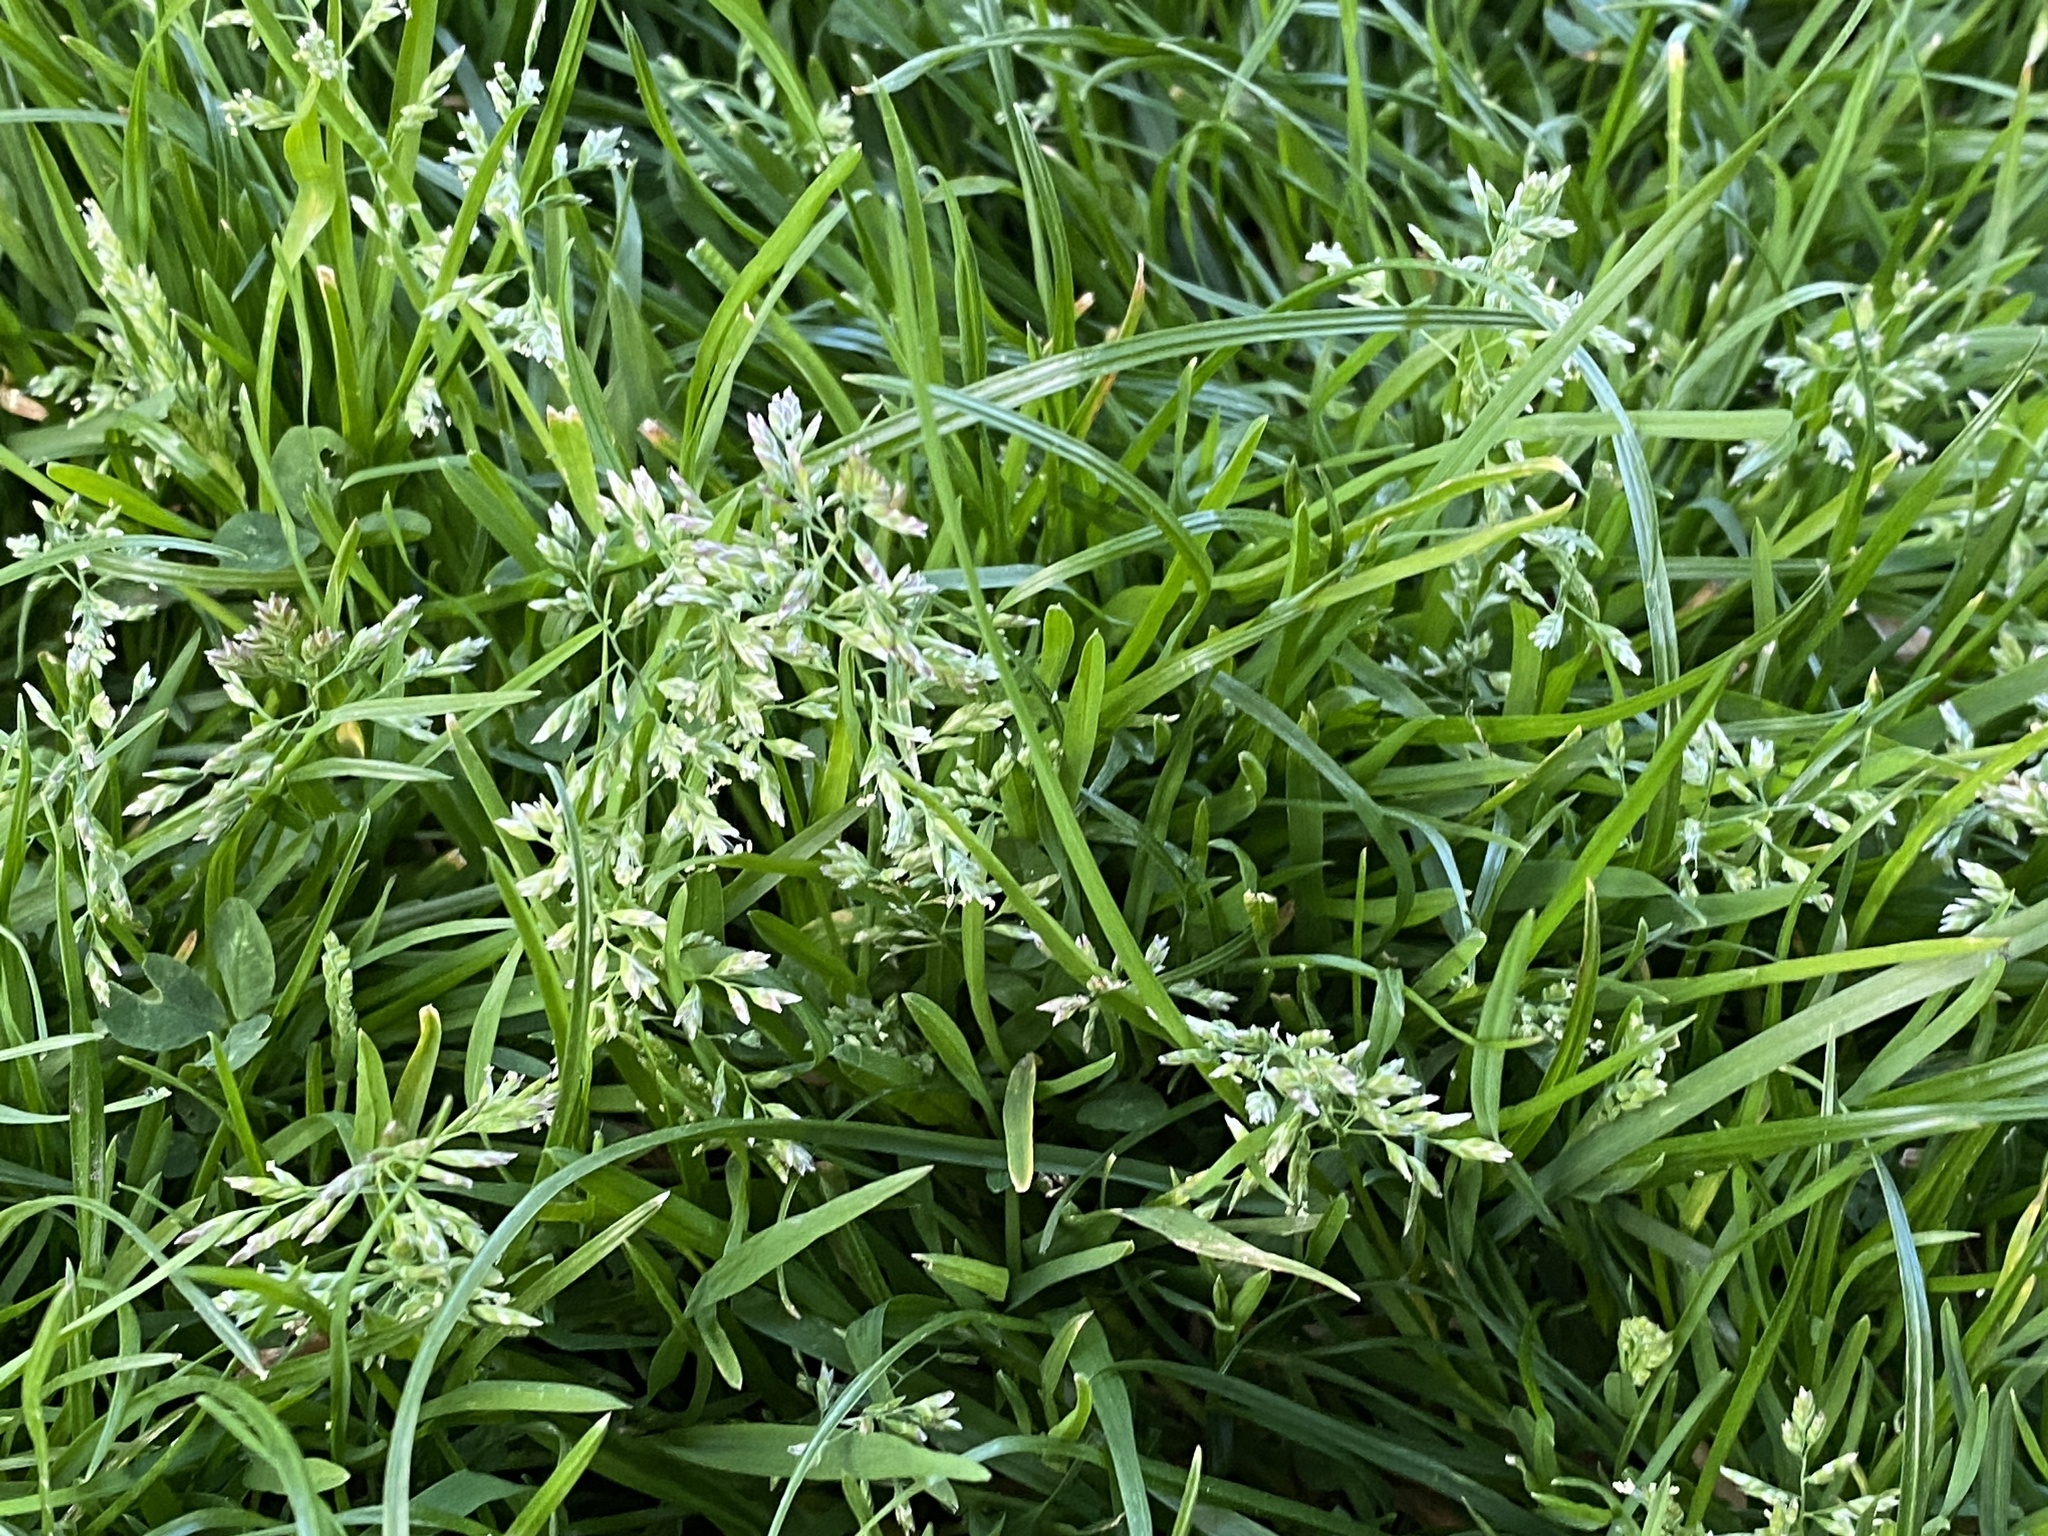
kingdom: Plantae
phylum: Tracheophyta
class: Liliopsida
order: Poales
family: Poaceae
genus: Poa
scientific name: Poa annua
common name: Annual bluegrass
